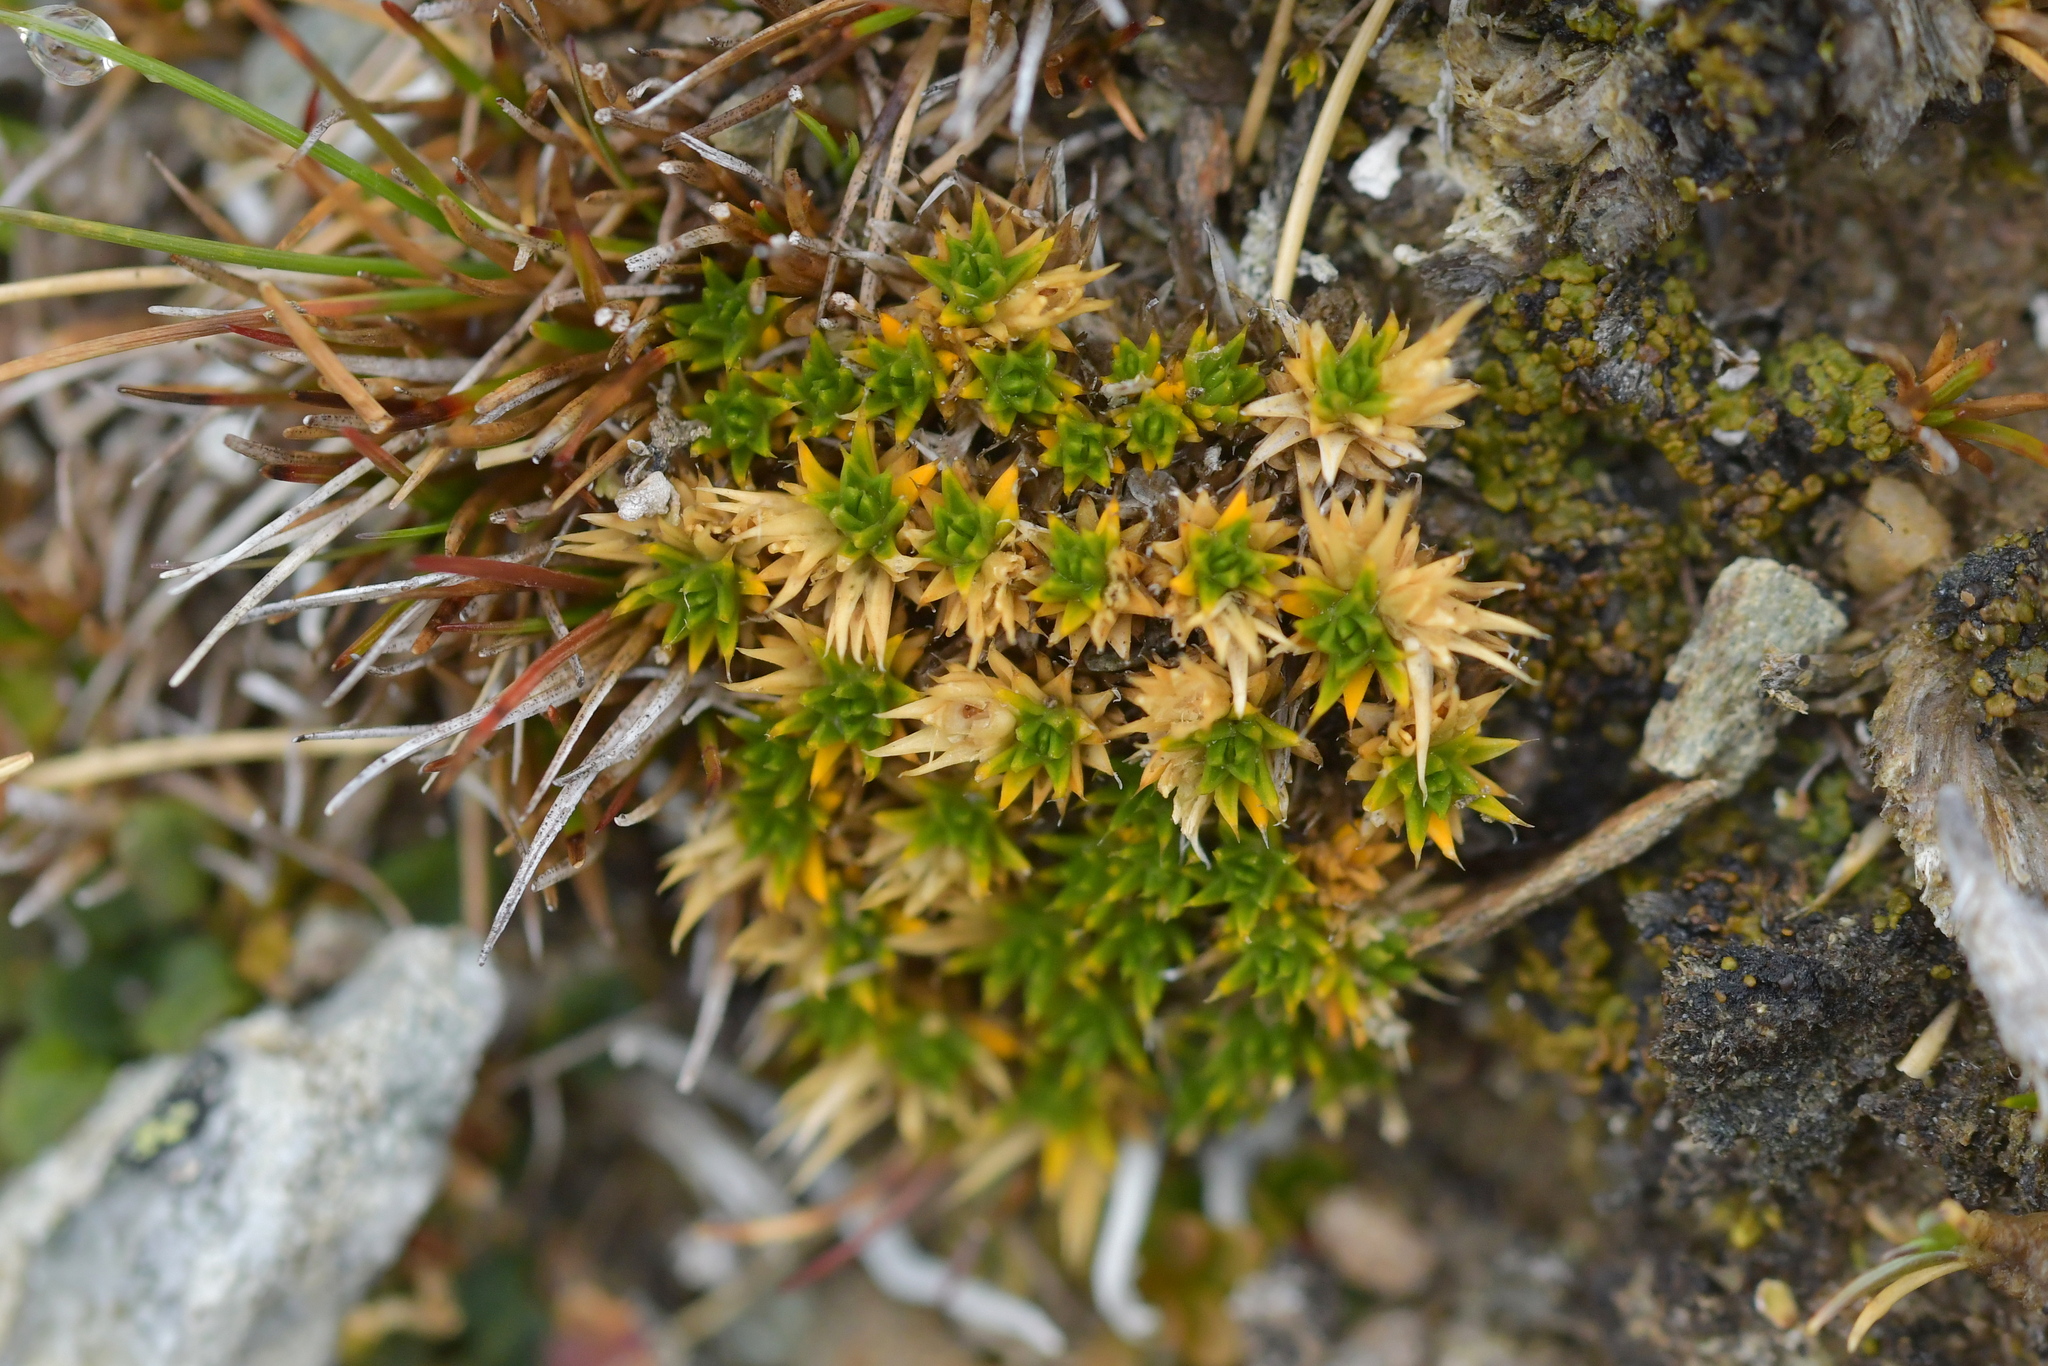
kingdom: Plantae
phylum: Tracheophyta
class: Magnoliopsida
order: Caryophyllales
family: Caryophyllaceae
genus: Colobanthus
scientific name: Colobanthus buchananii
